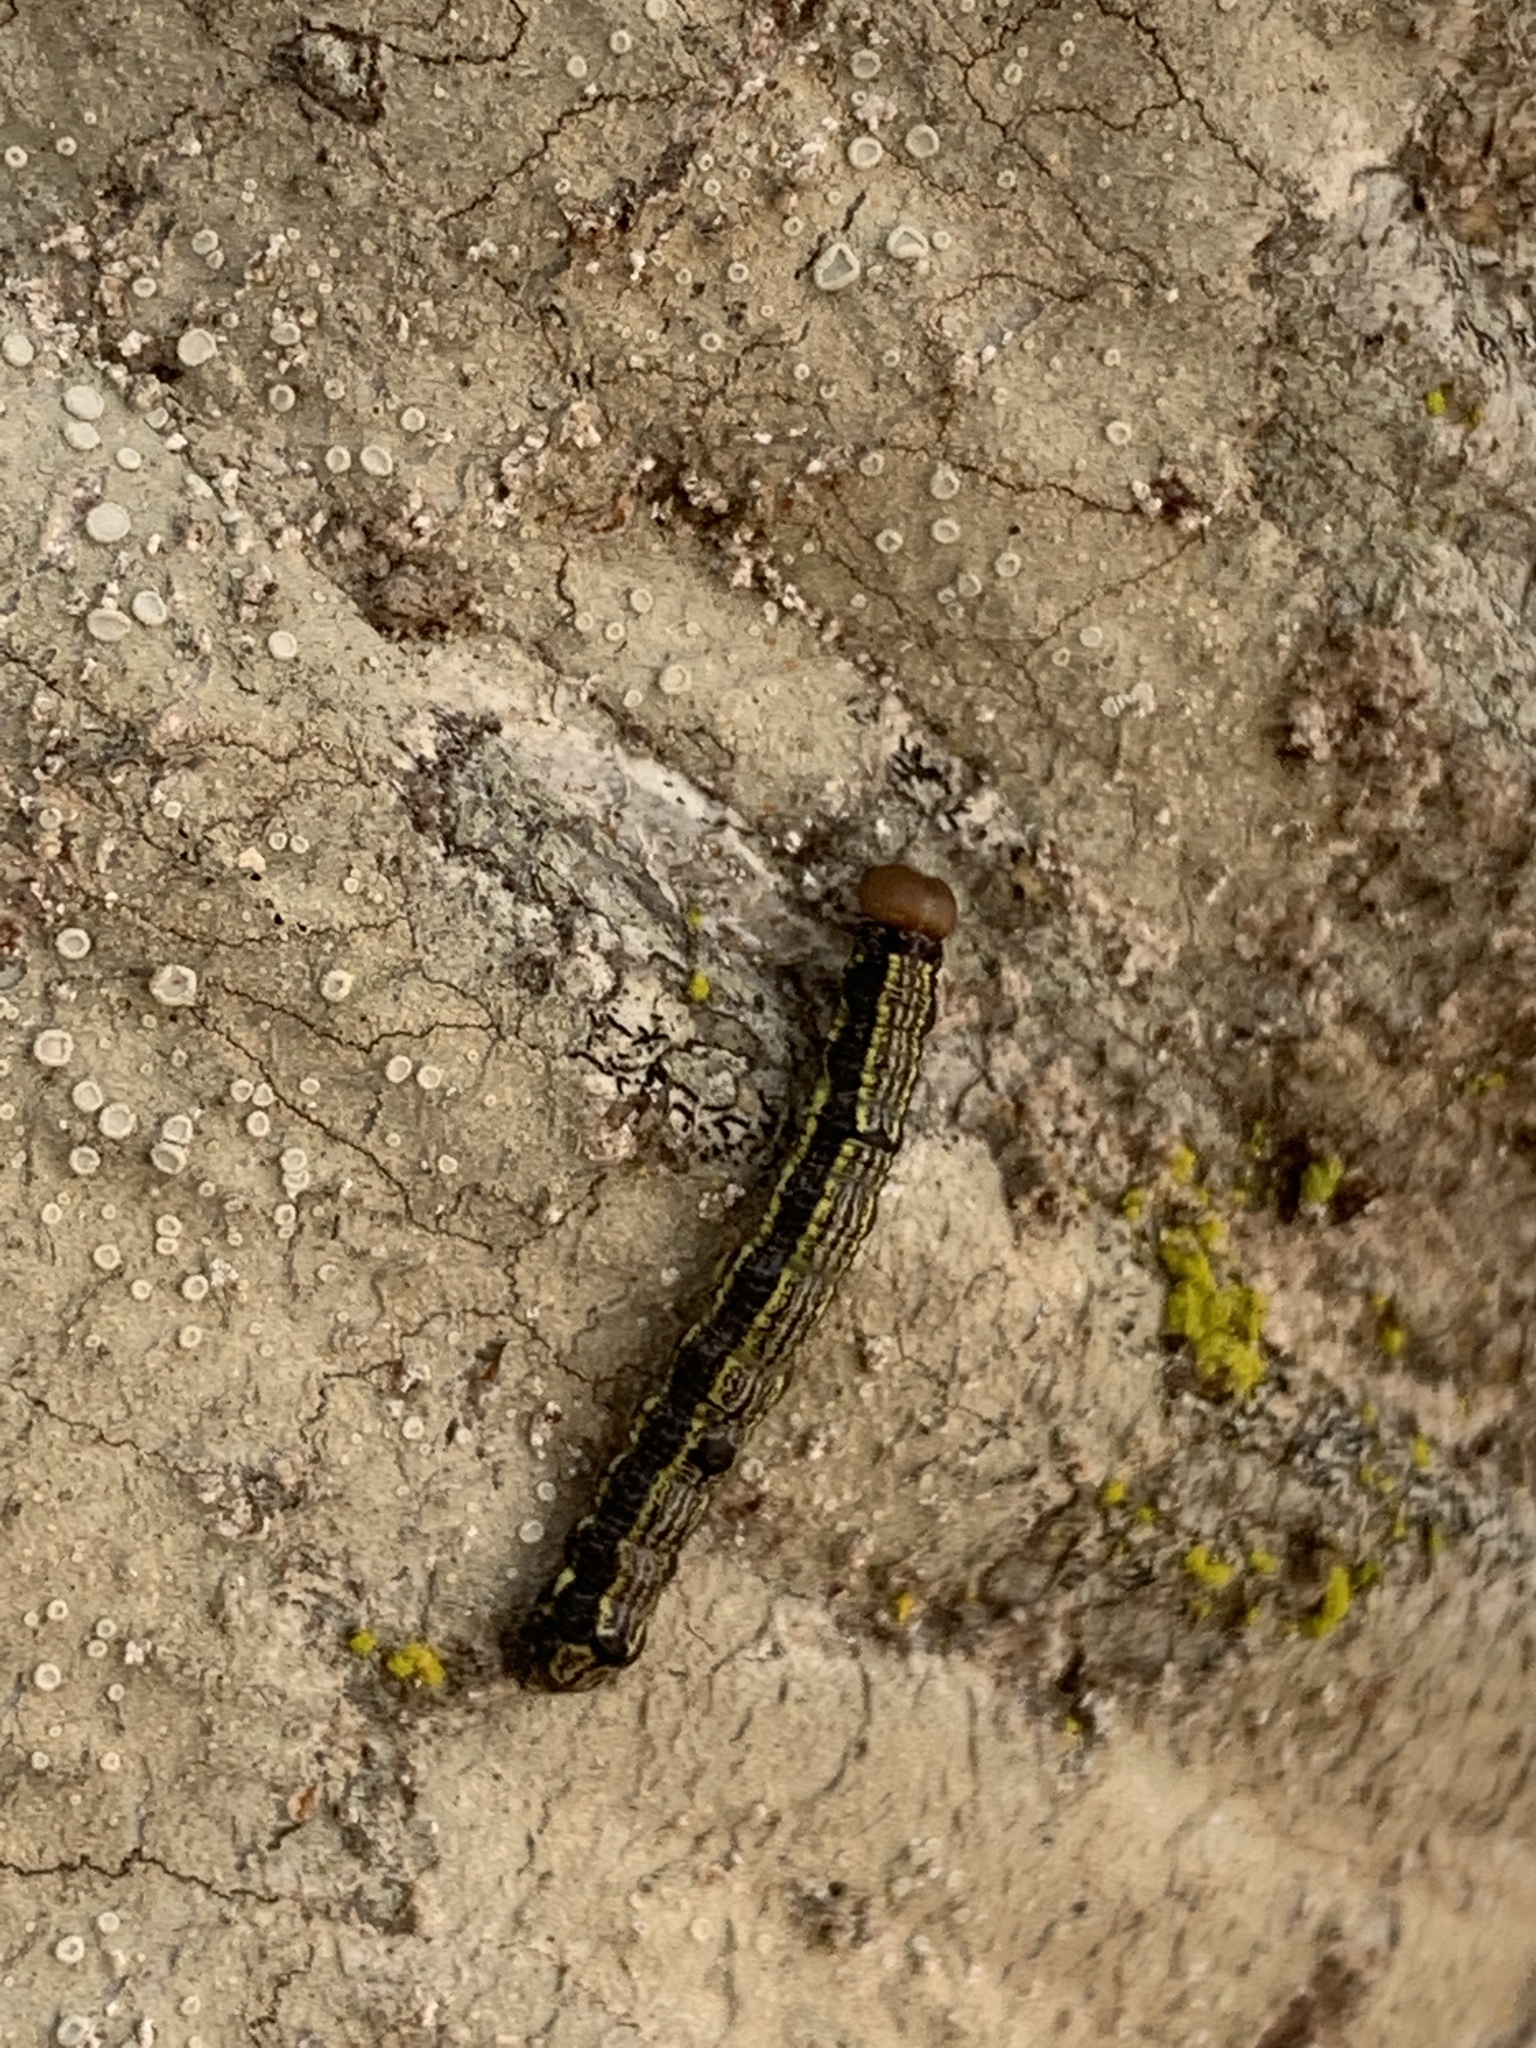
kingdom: Animalia
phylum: Arthropoda
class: Insecta
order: Lepidoptera
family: Notodontidae
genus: Phryganidia
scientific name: Phryganidia californica
